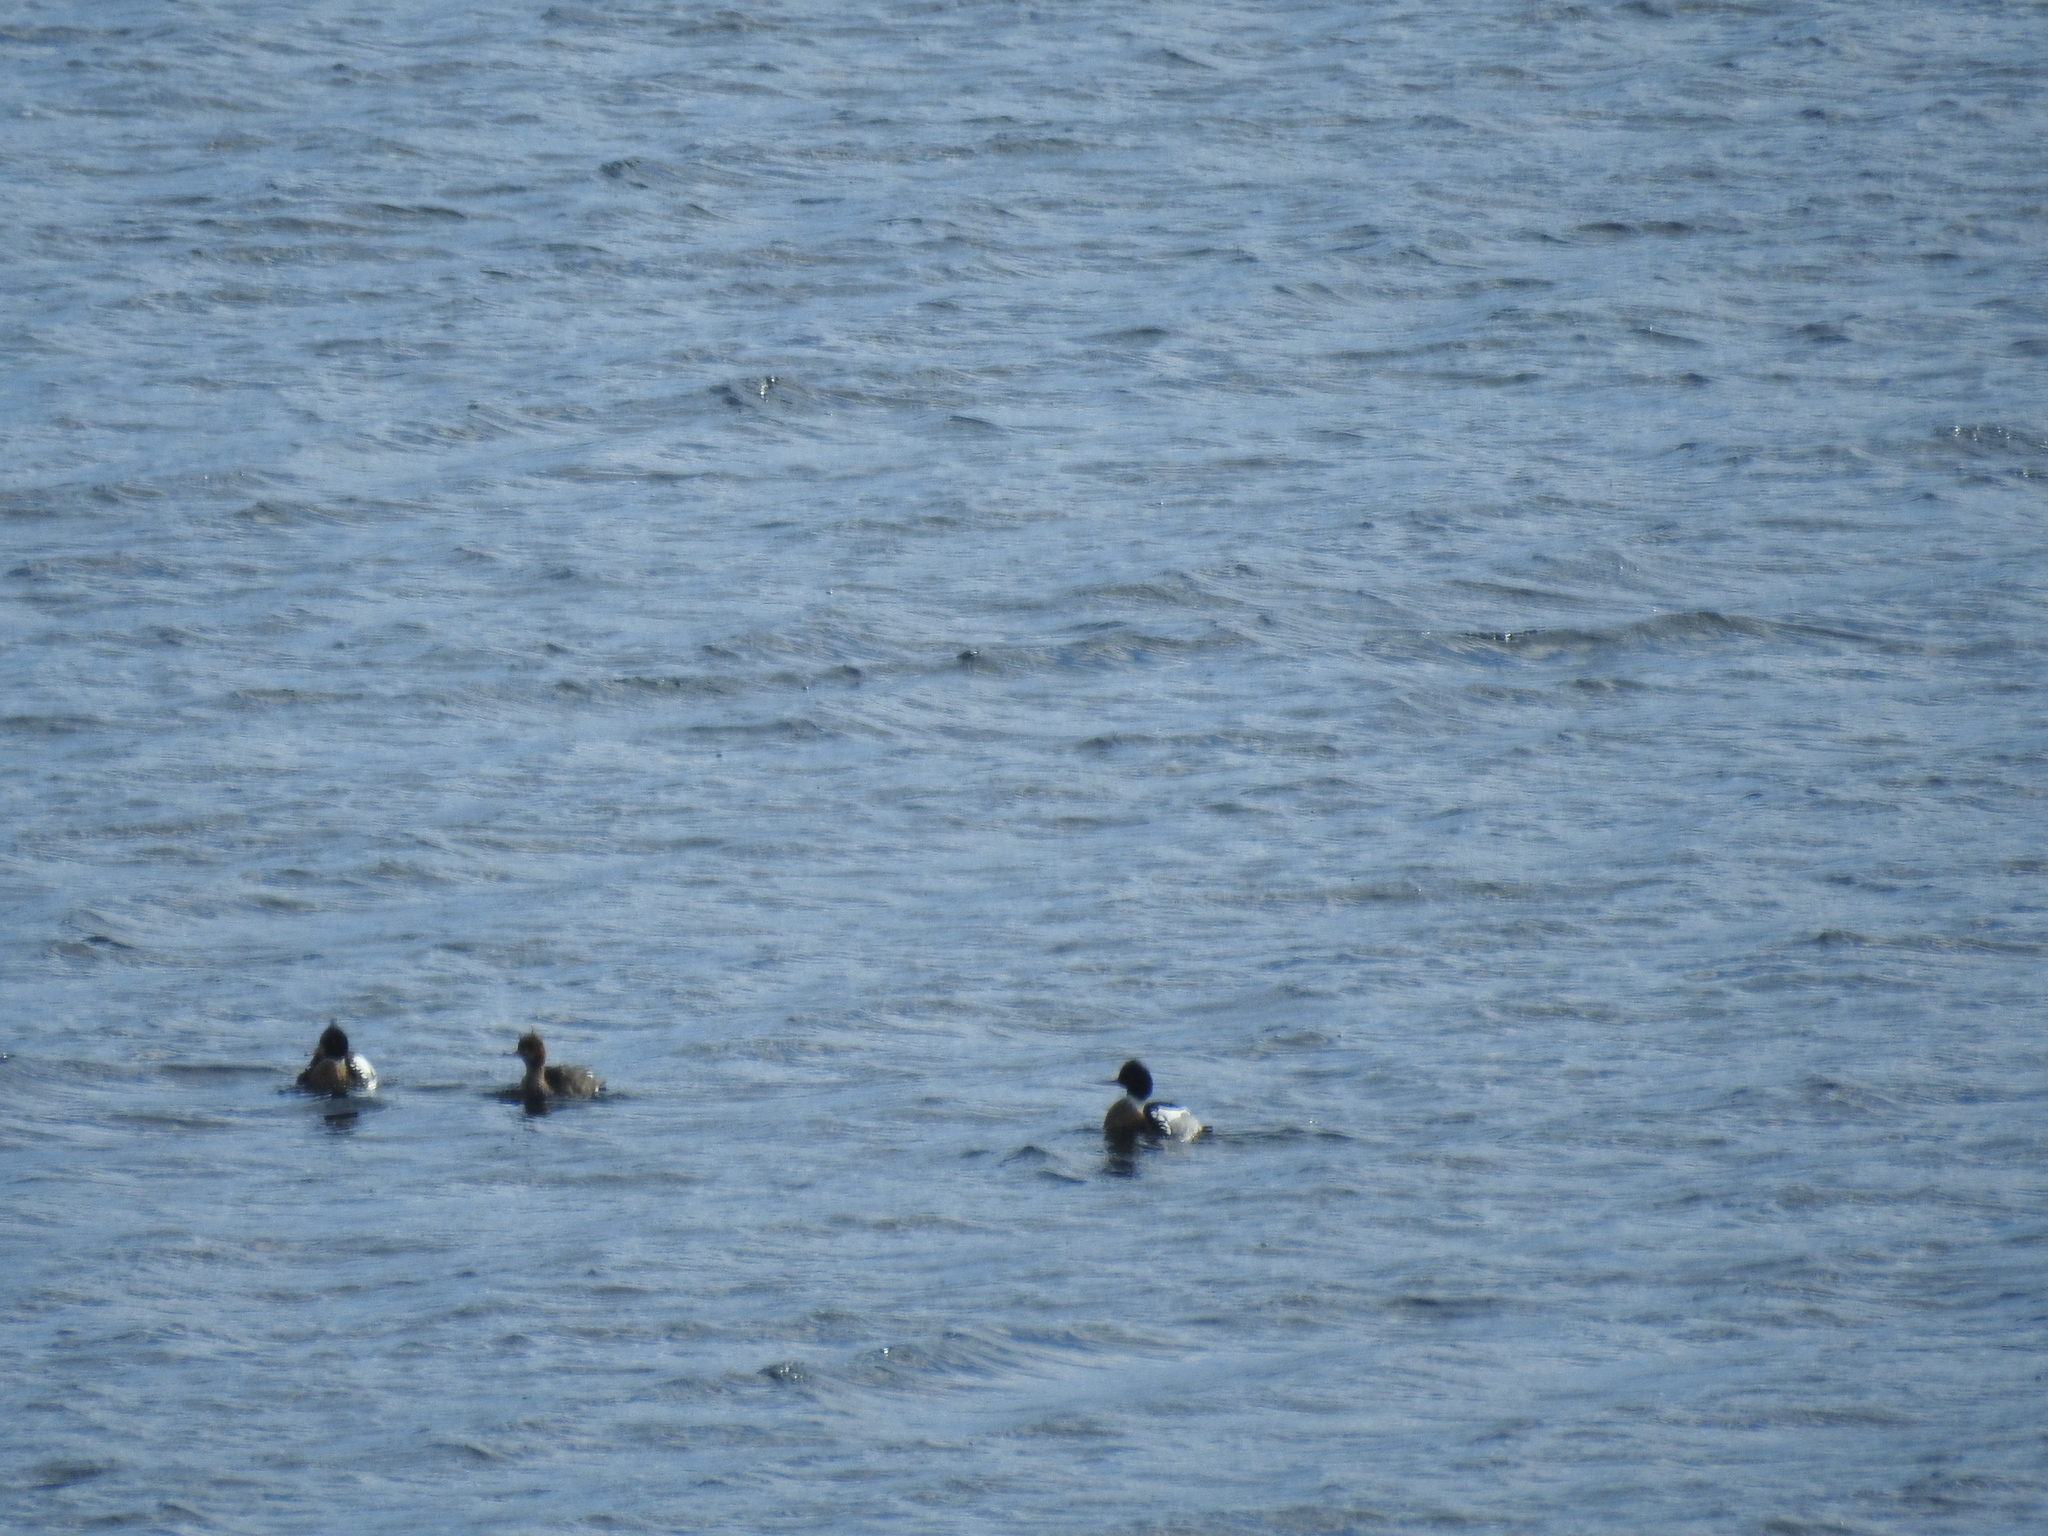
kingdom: Animalia
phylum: Chordata
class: Aves
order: Anseriformes
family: Anatidae
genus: Mergus
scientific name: Mergus serrator
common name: Red-breasted merganser
